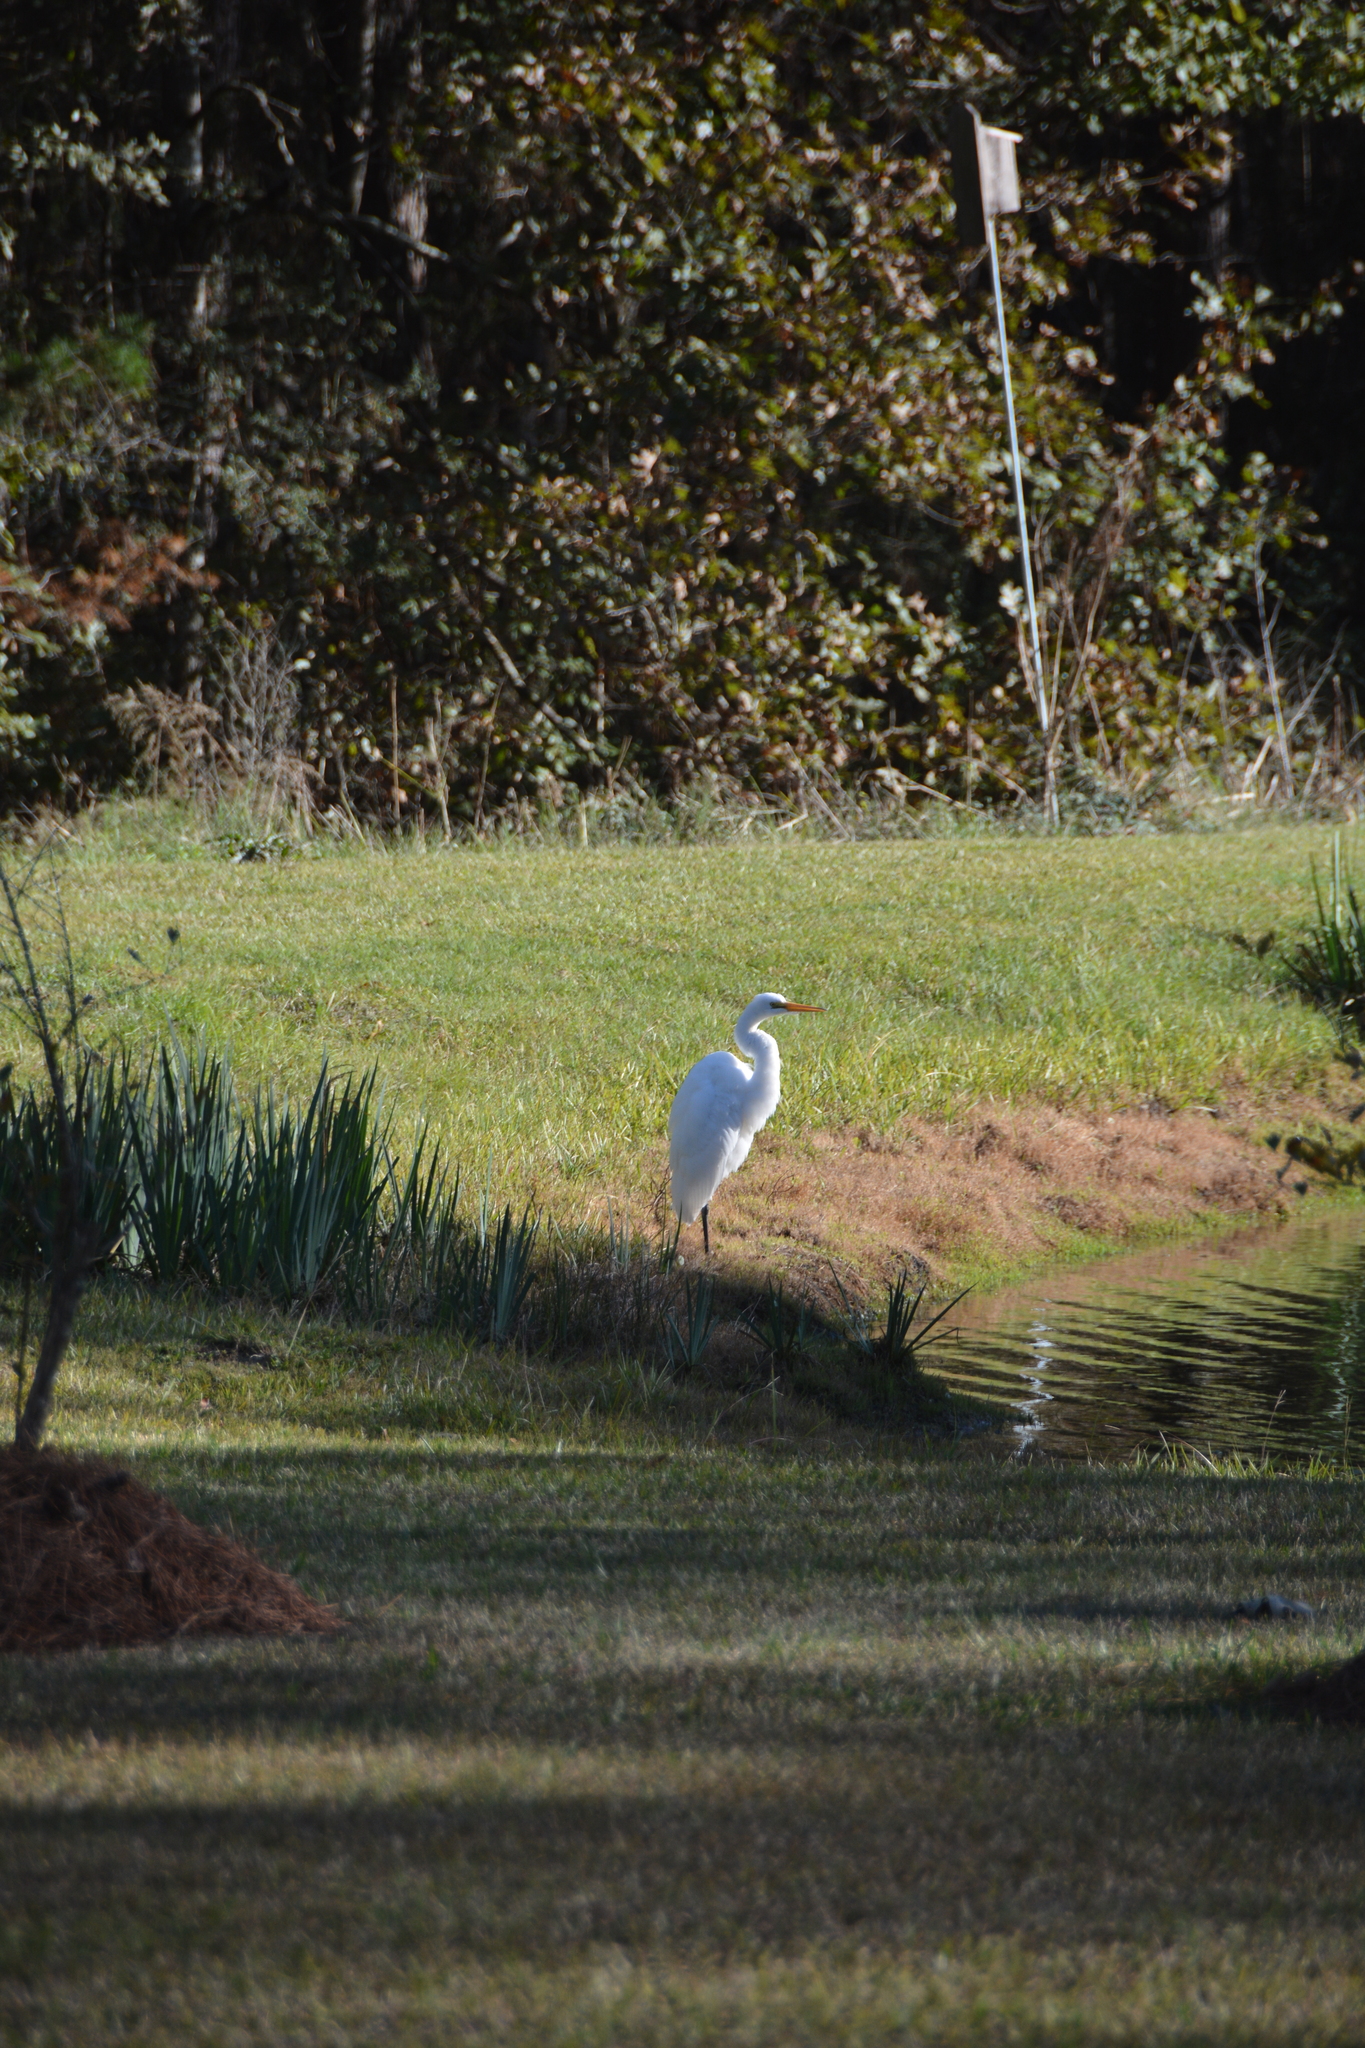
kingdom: Animalia
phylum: Chordata
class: Aves
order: Pelecaniformes
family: Ardeidae
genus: Ardea
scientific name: Ardea alba
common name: Great egret
